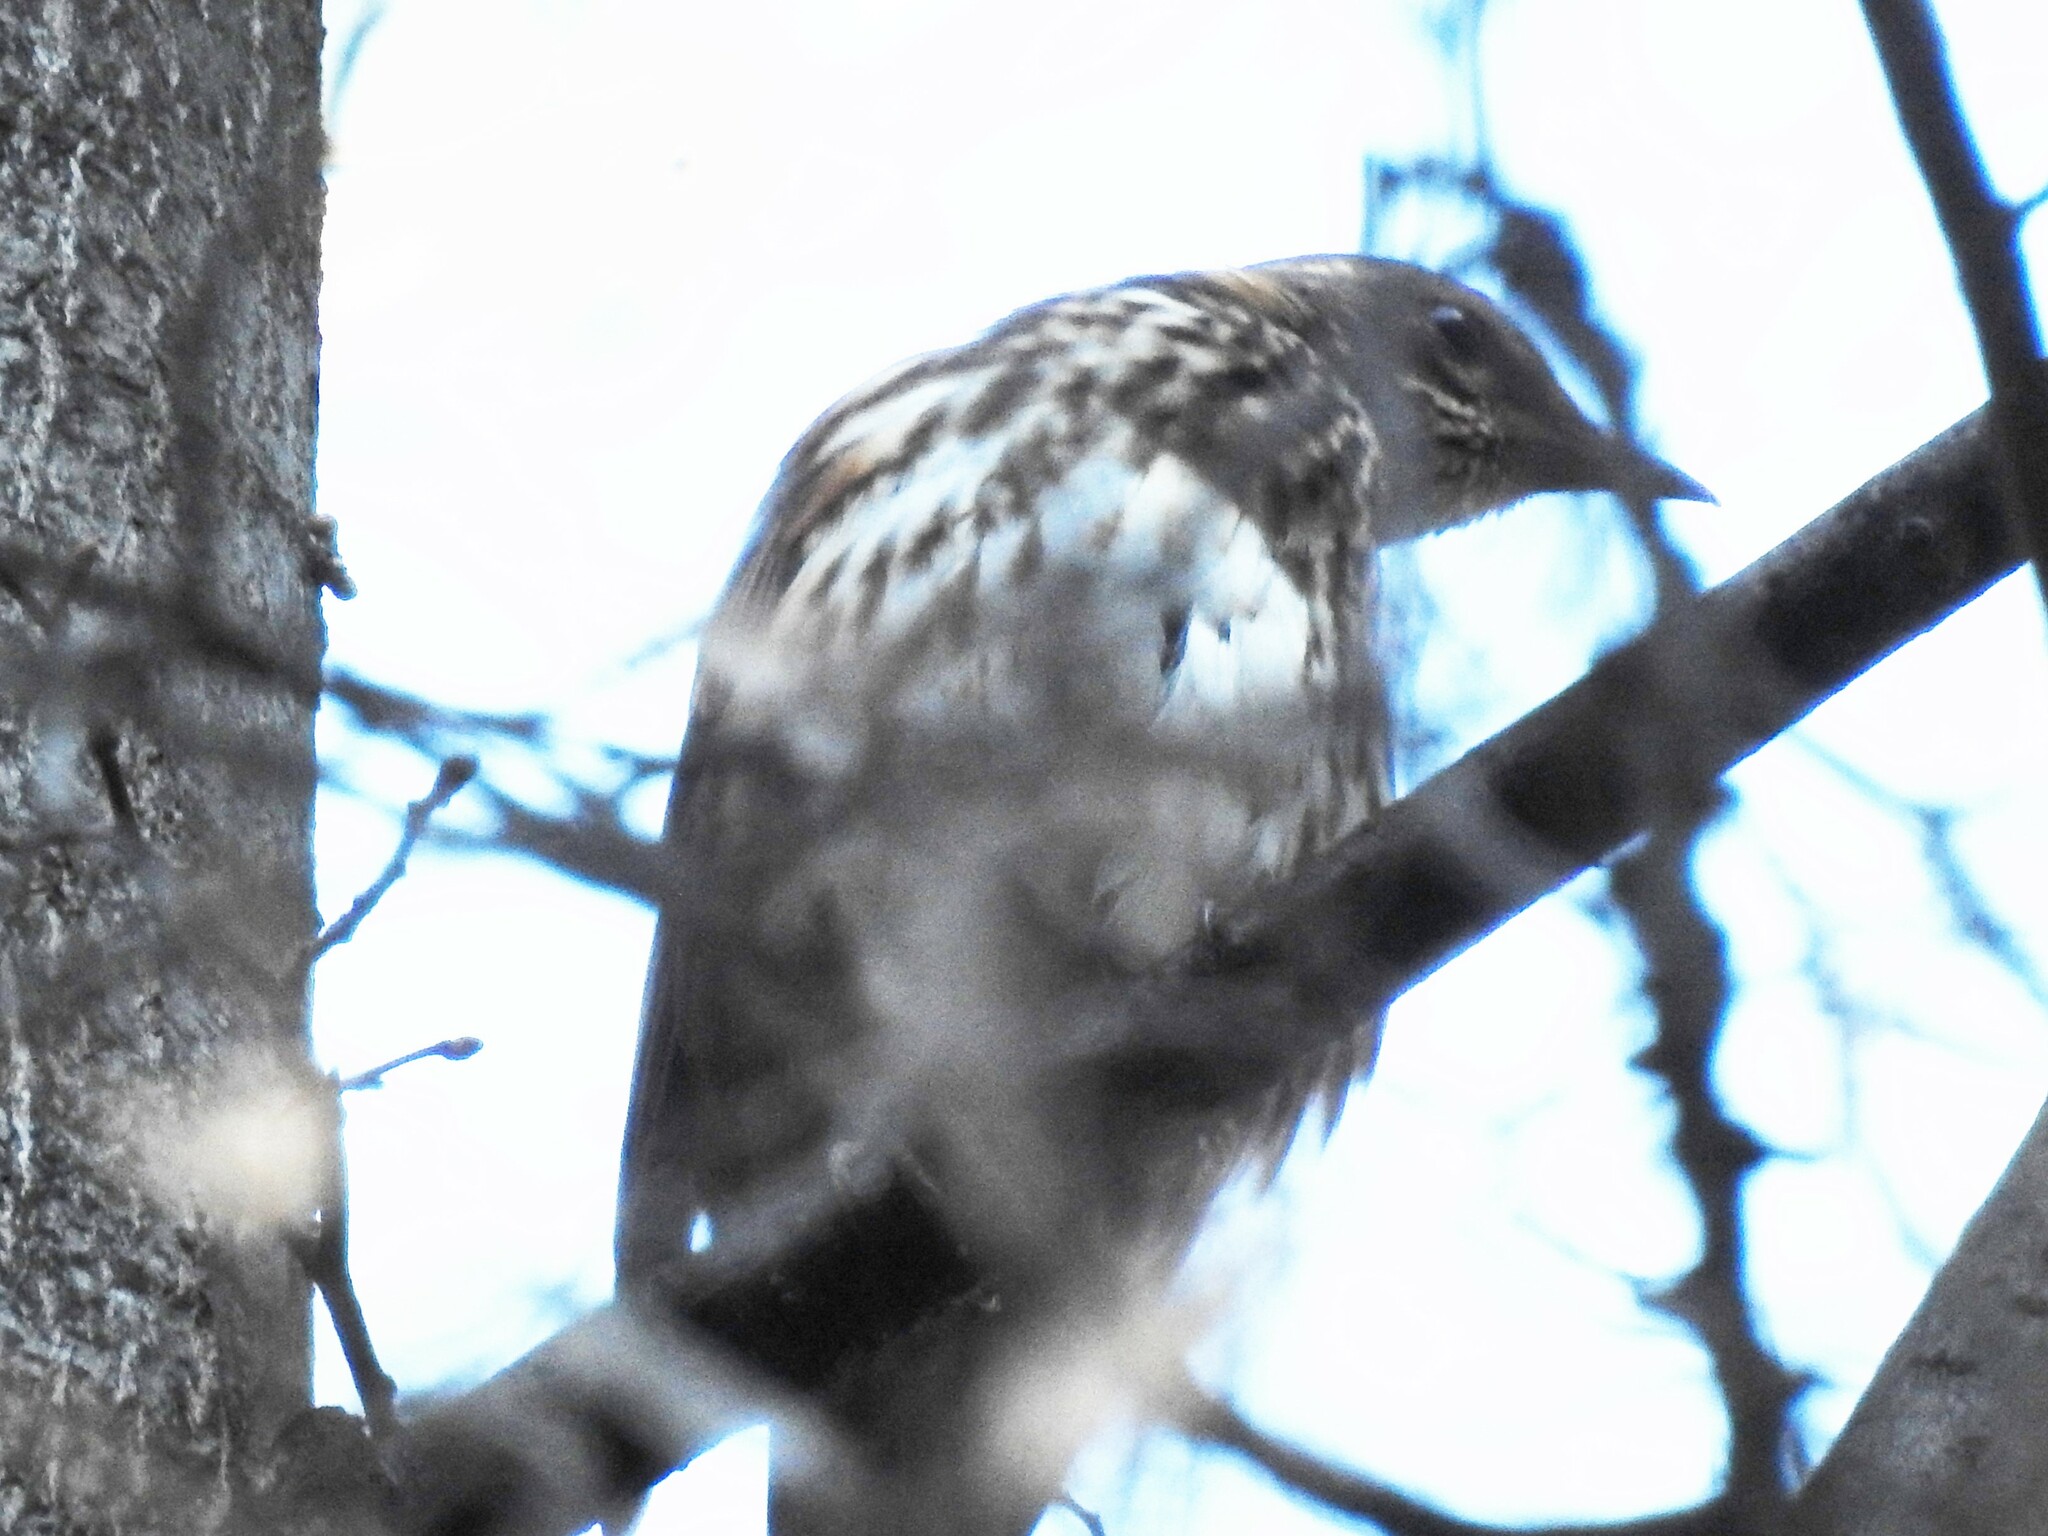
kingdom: Animalia
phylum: Chordata
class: Aves
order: Passeriformes
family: Turdidae
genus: Turdus
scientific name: Turdus iliacus
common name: Redwing
